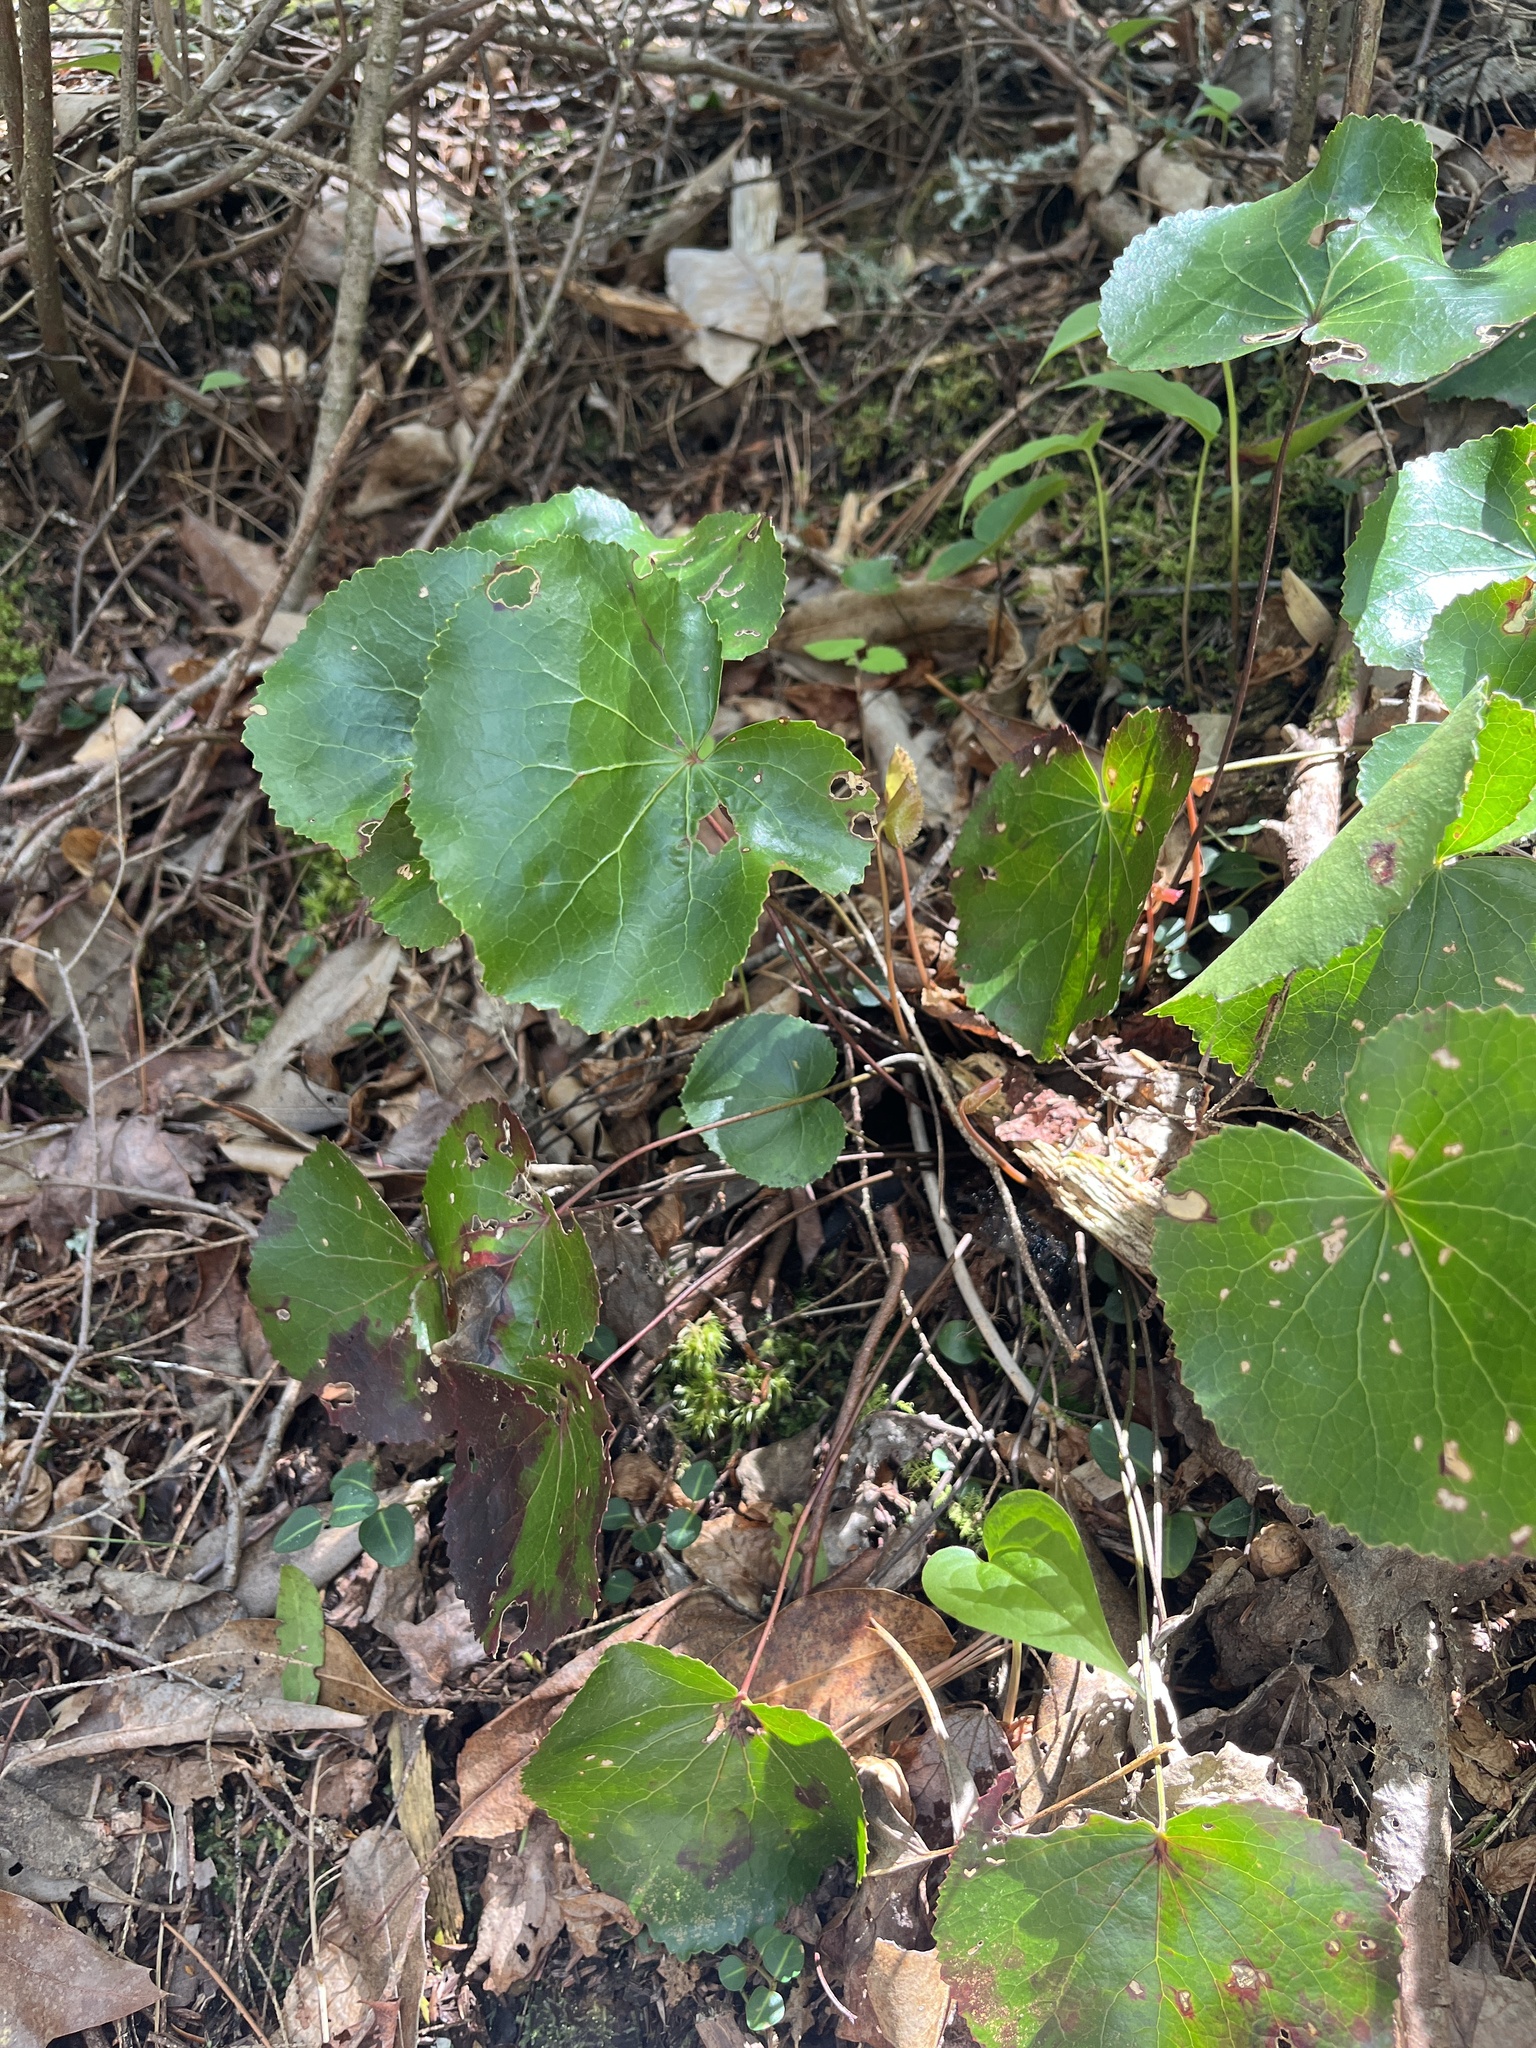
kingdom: Plantae
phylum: Tracheophyta
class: Magnoliopsida
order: Ericales
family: Diapensiaceae
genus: Galax
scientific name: Galax urceolata
